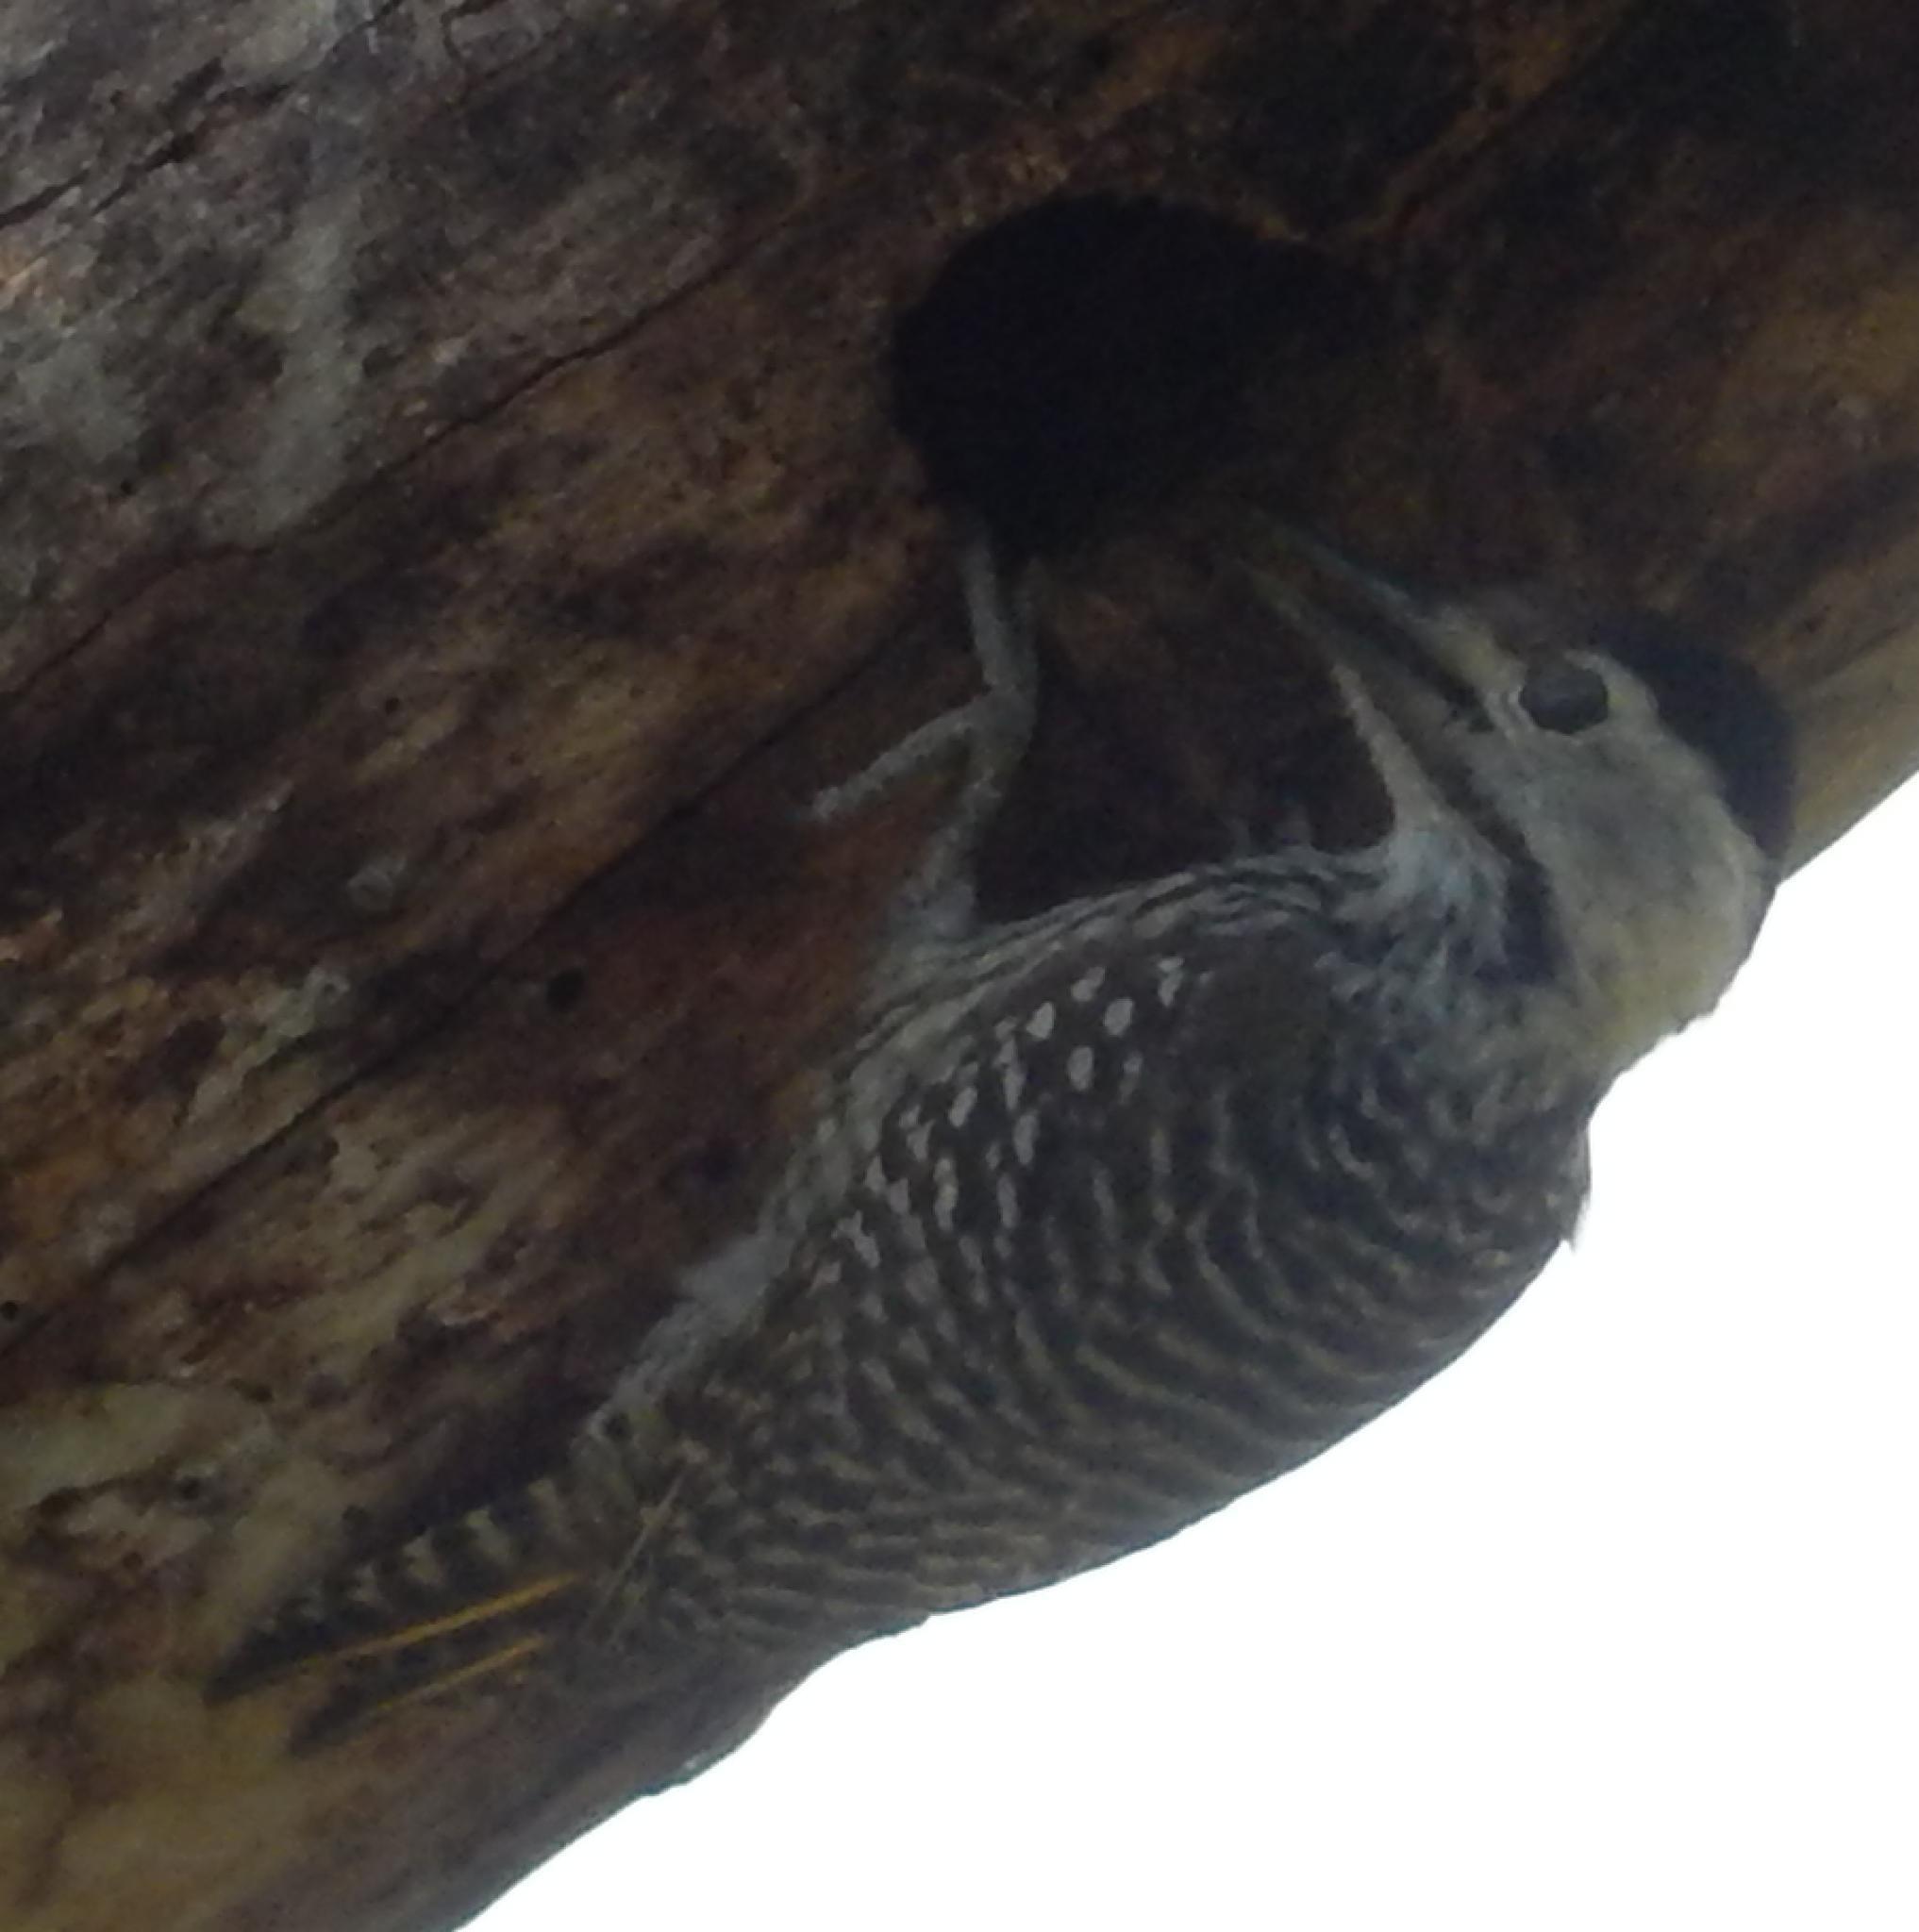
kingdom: Animalia
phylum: Chordata
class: Aves
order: Piciformes
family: Picidae
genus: Dendropicos
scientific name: Dendropicos fuscescens
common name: Cardinal woodpecker
